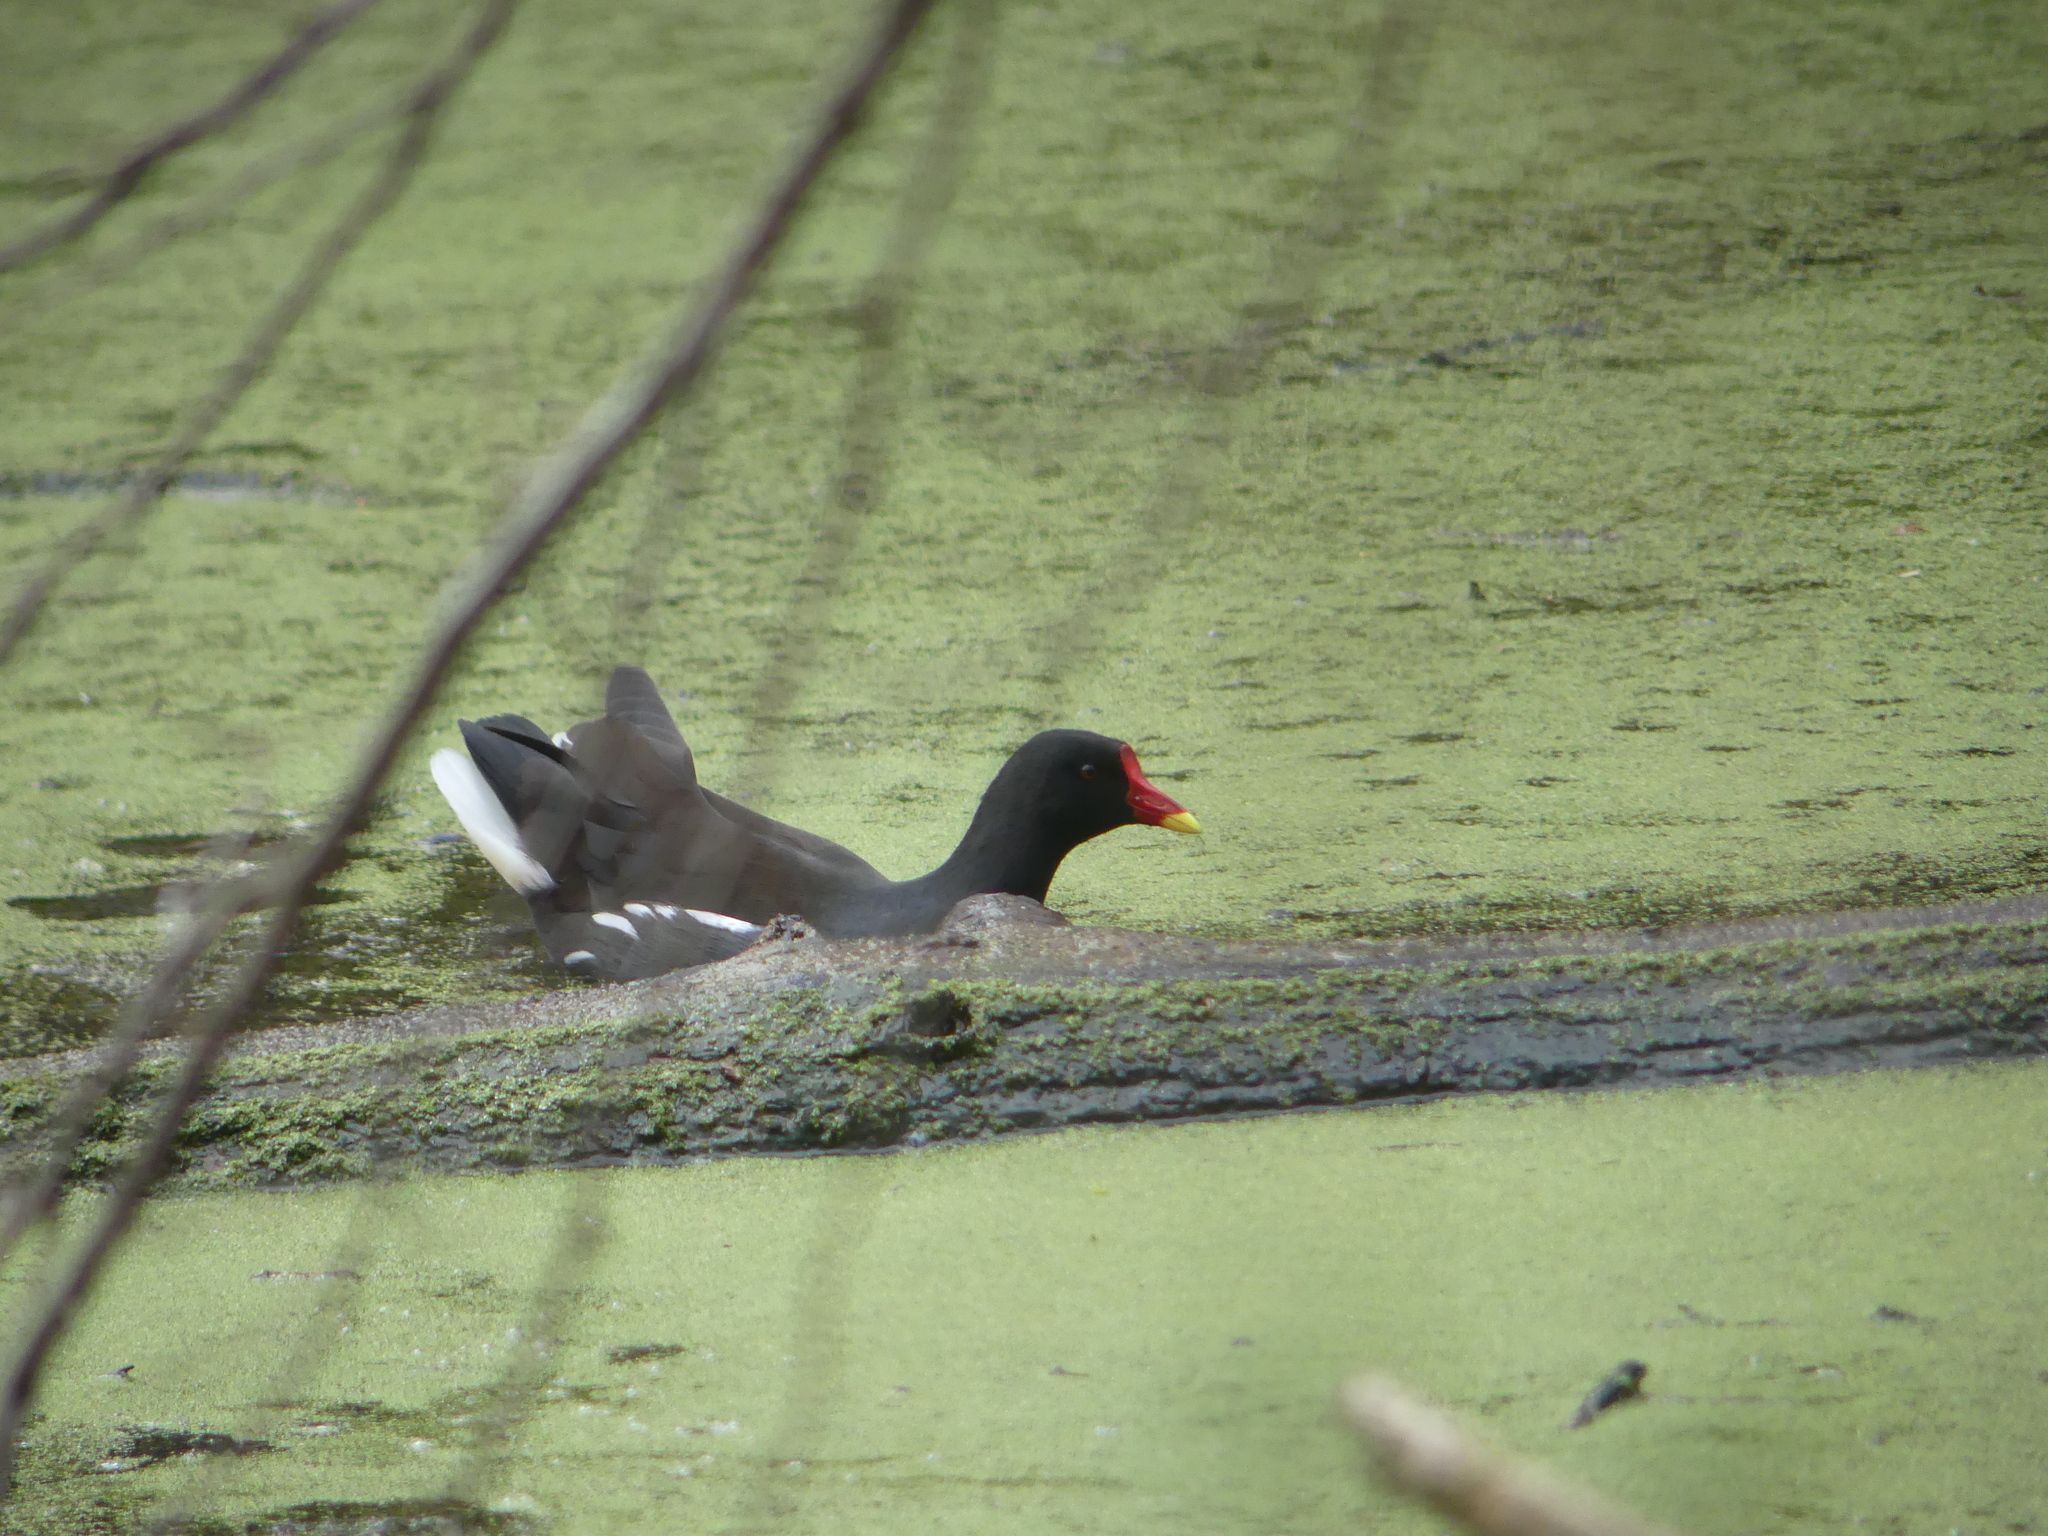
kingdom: Animalia
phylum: Chordata
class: Aves
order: Gruiformes
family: Rallidae
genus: Gallinula
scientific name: Gallinula chloropus
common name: Common moorhen
